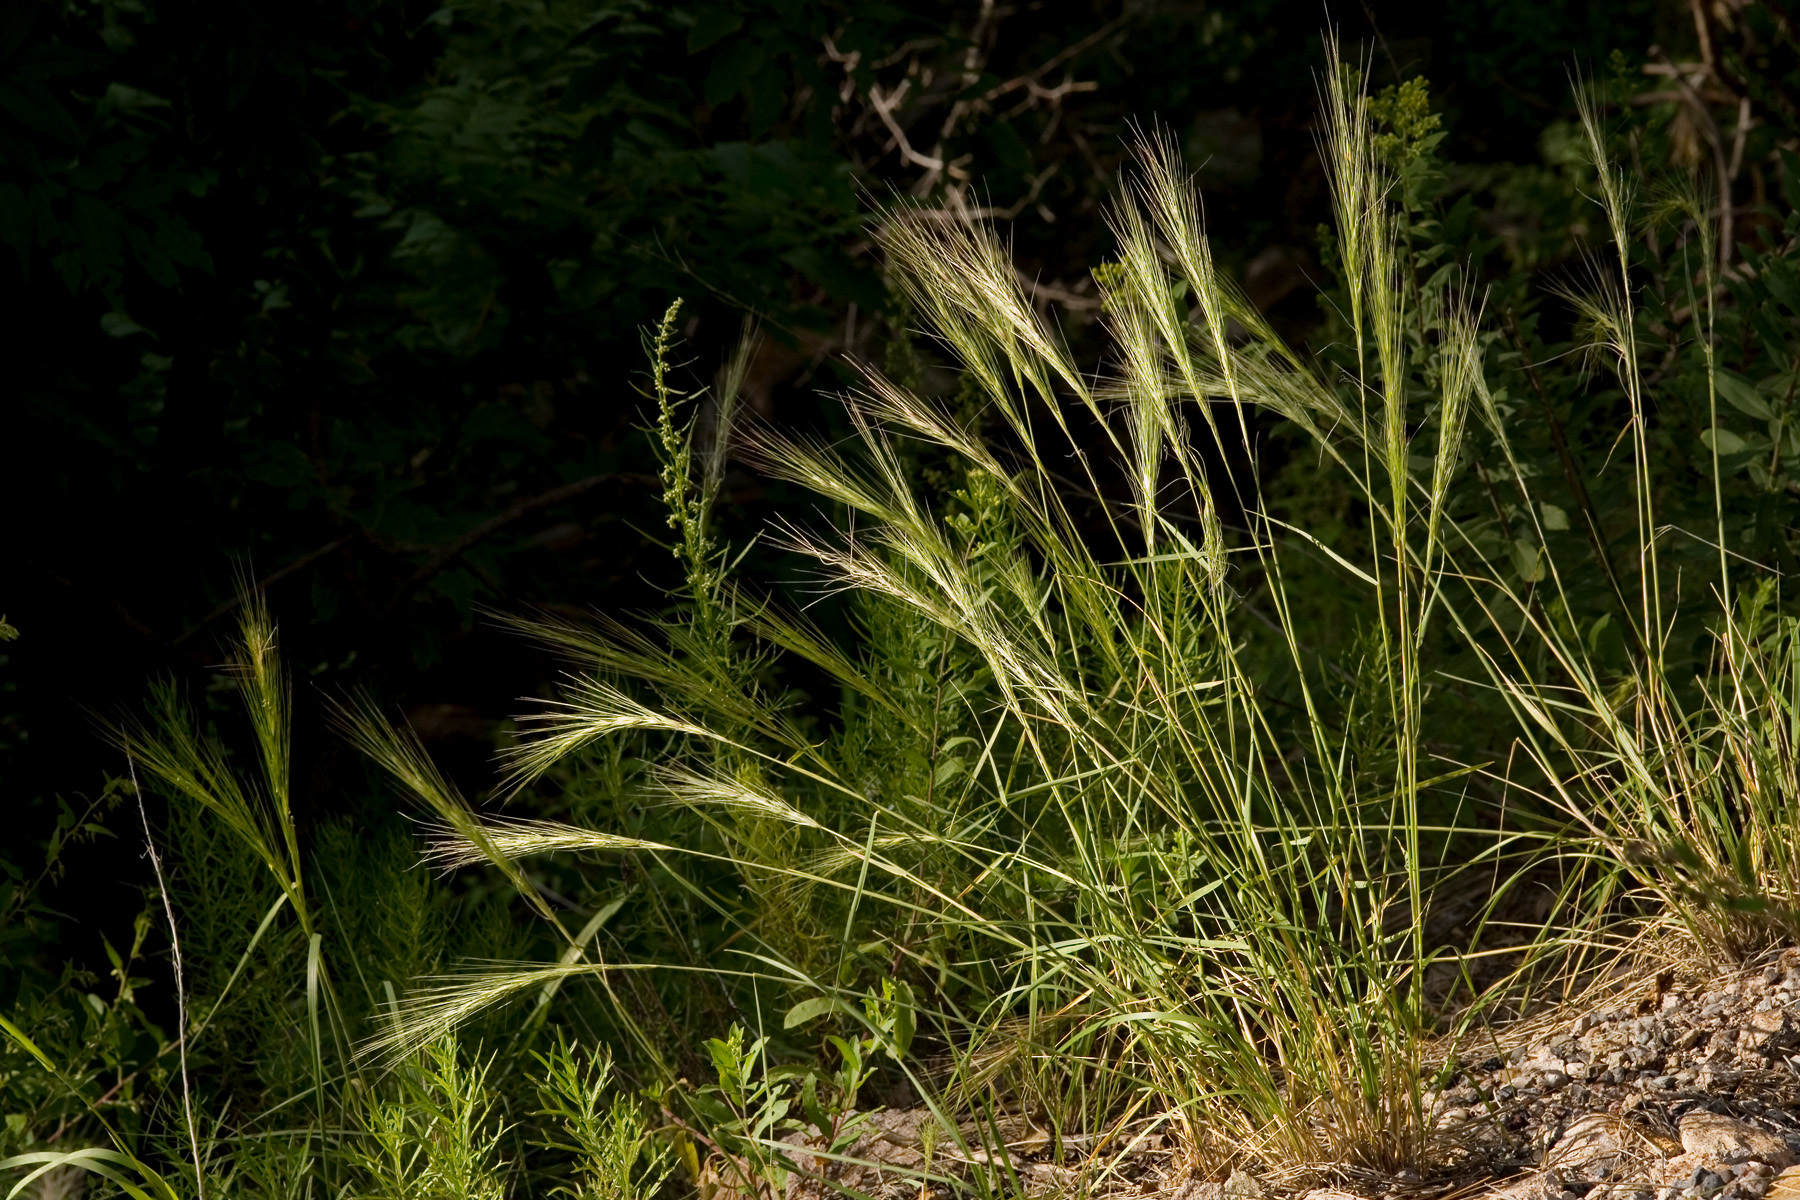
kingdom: Plantae
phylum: Tracheophyta
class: Liliopsida
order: Poales
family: Poaceae
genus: Elymus
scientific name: Elymus longifolius
